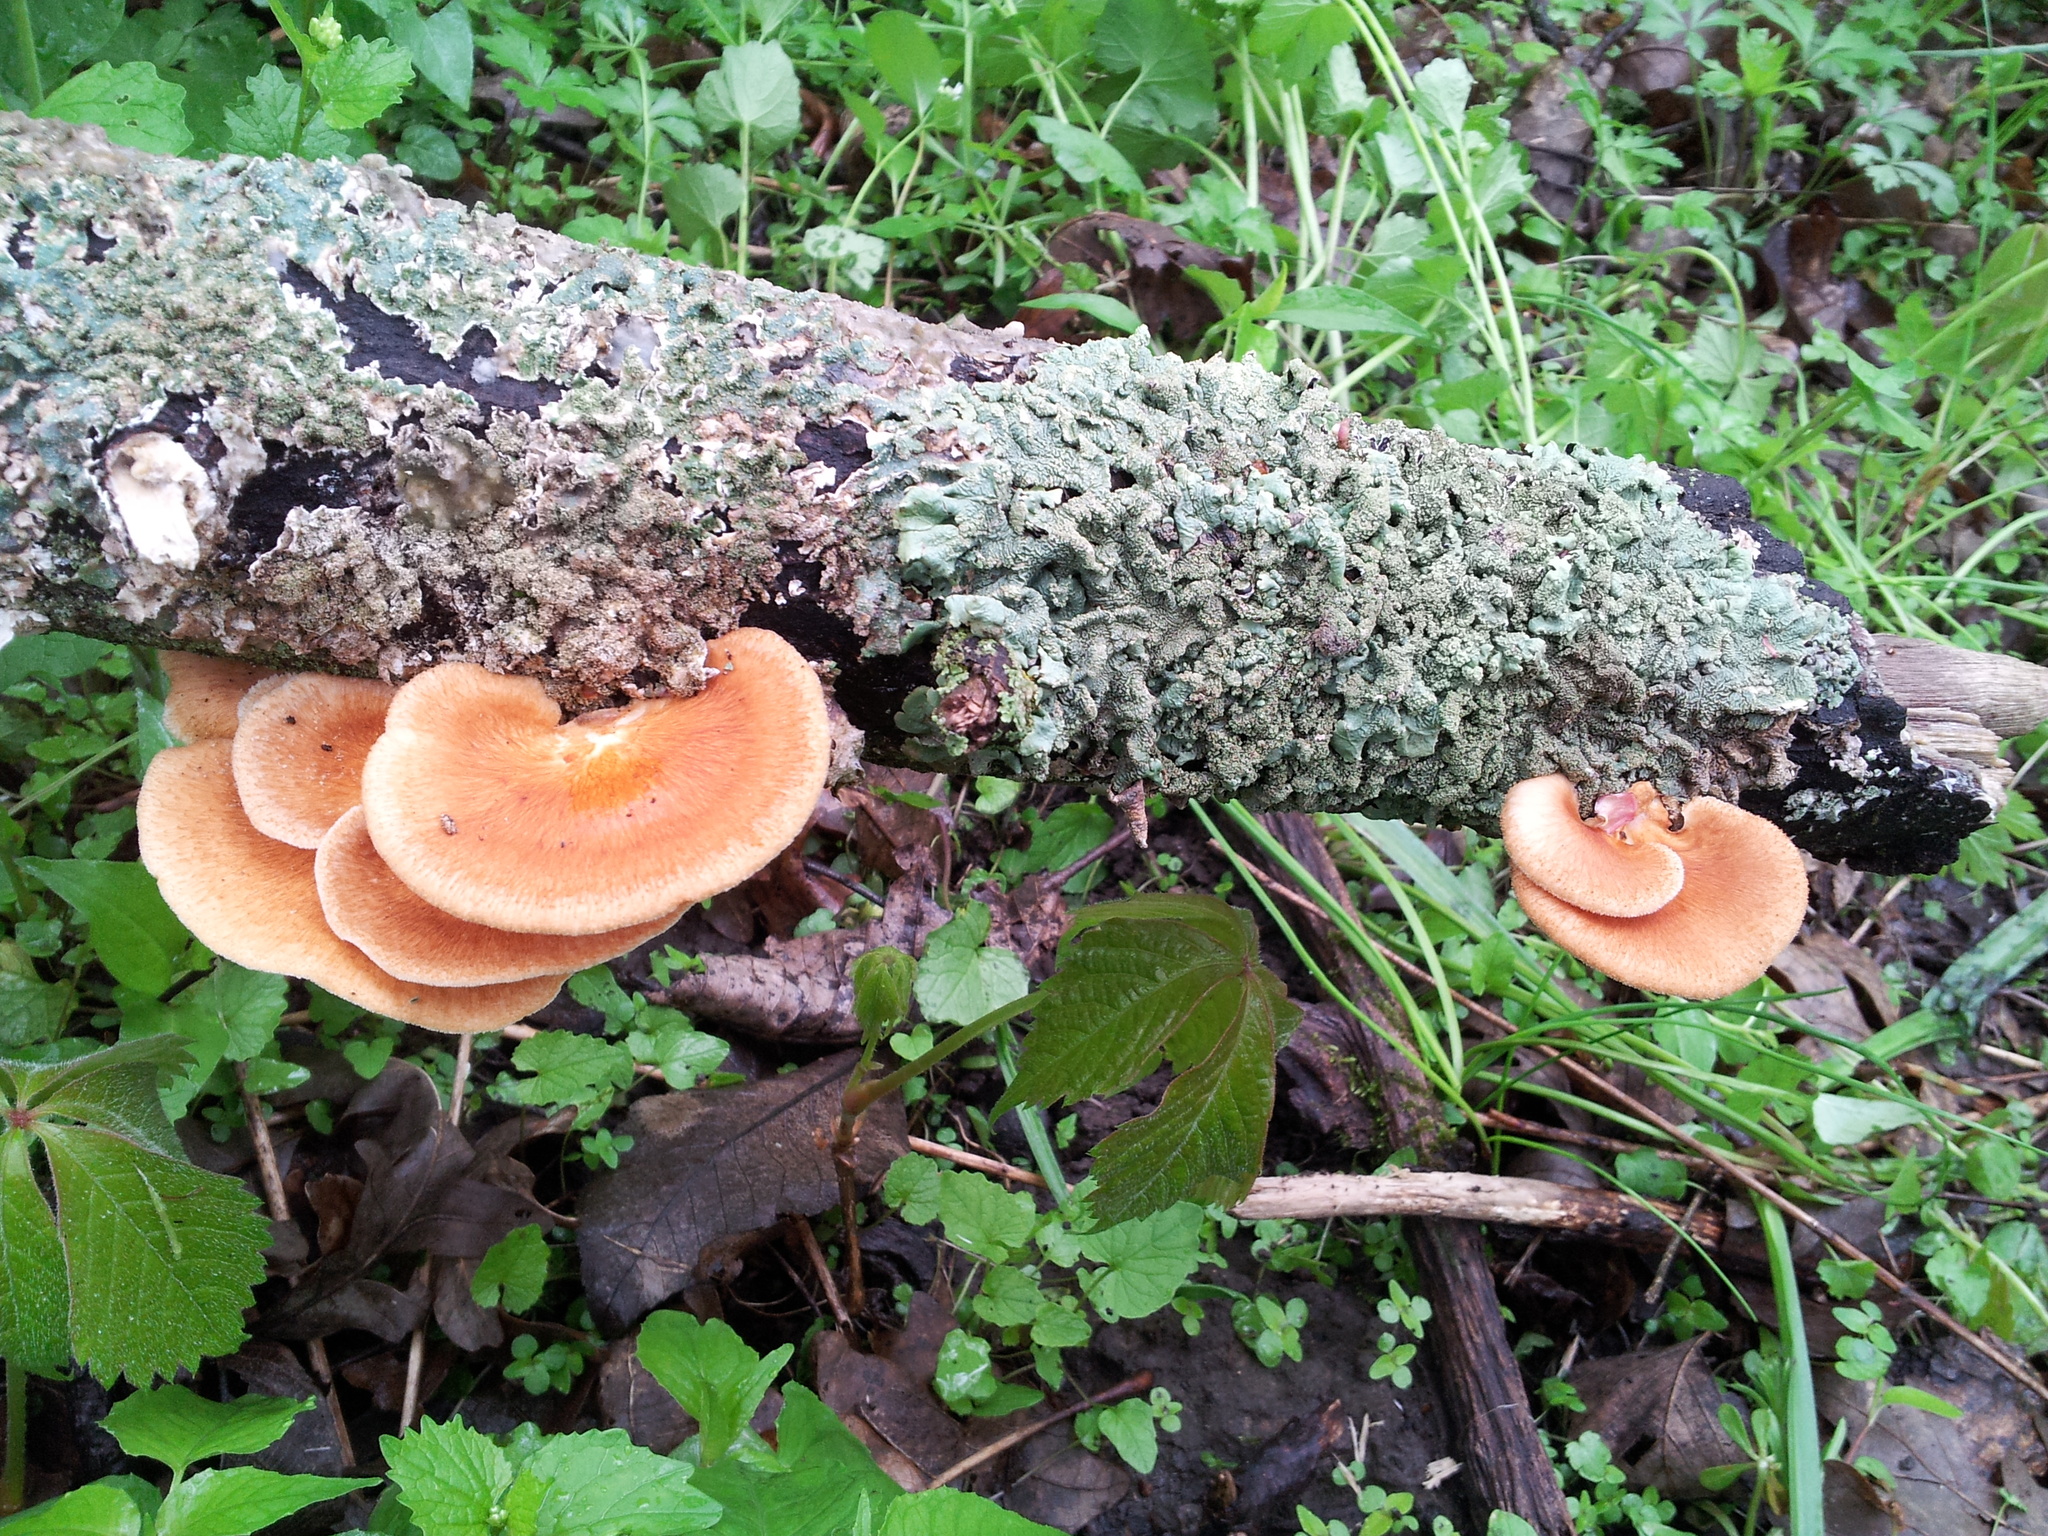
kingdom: Fungi
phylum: Basidiomycota
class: Agaricomycetes
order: Polyporales
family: Polyporaceae
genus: Neofavolus
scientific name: Neofavolus alveolaris
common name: Hexagonal-pored polypore
